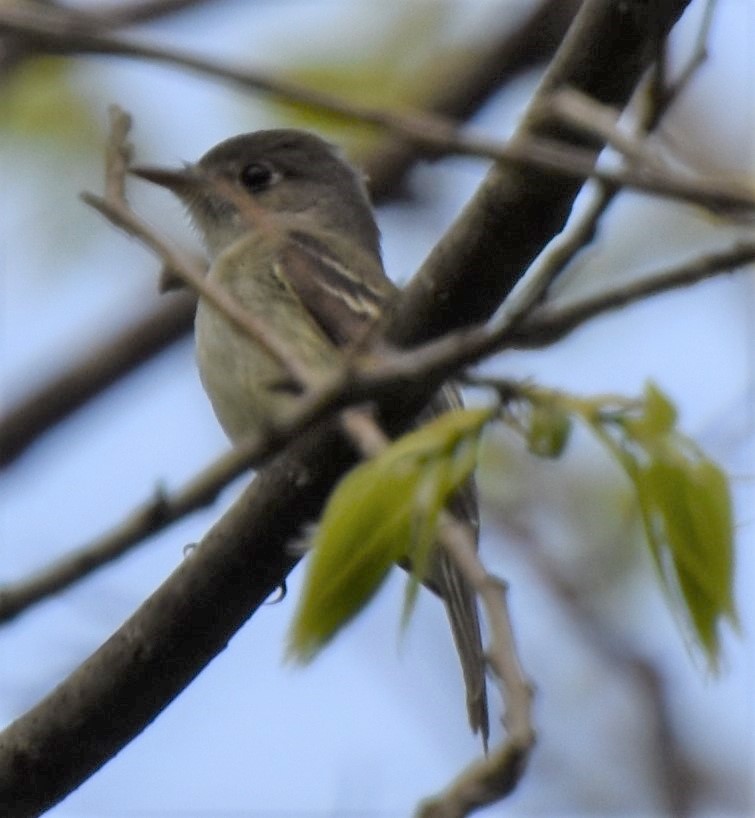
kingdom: Animalia
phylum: Chordata
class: Aves
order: Passeriformes
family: Tyrannidae
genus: Empidonax
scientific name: Empidonax virescens
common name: Acadian flycatcher
